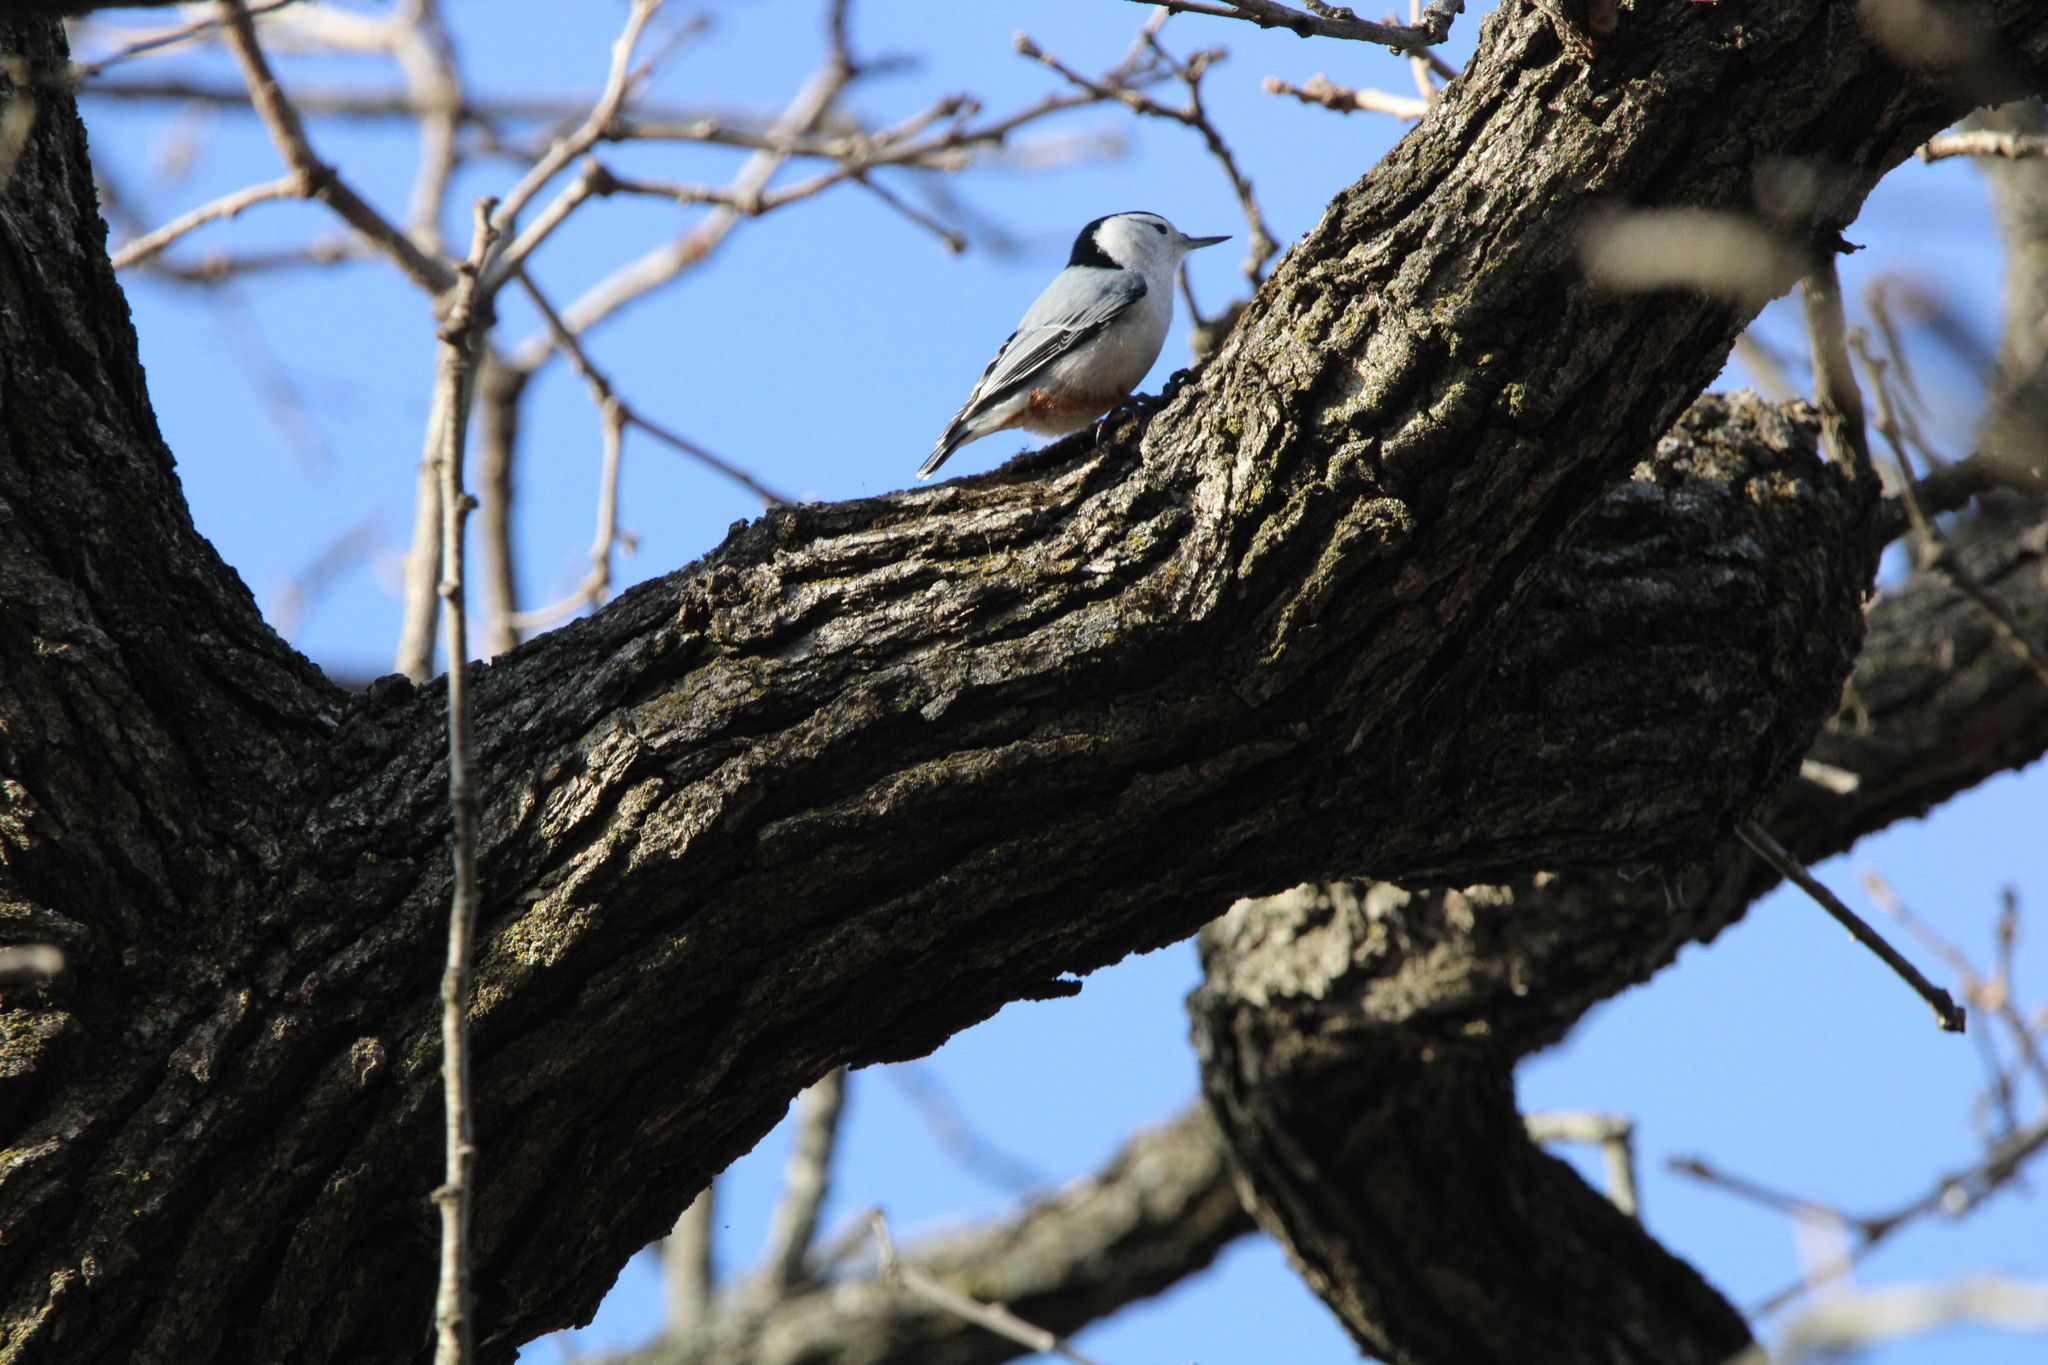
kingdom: Animalia
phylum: Chordata
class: Aves
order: Passeriformes
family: Sittidae
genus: Sitta
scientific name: Sitta carolinensis
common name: White-breasted nuthatch
